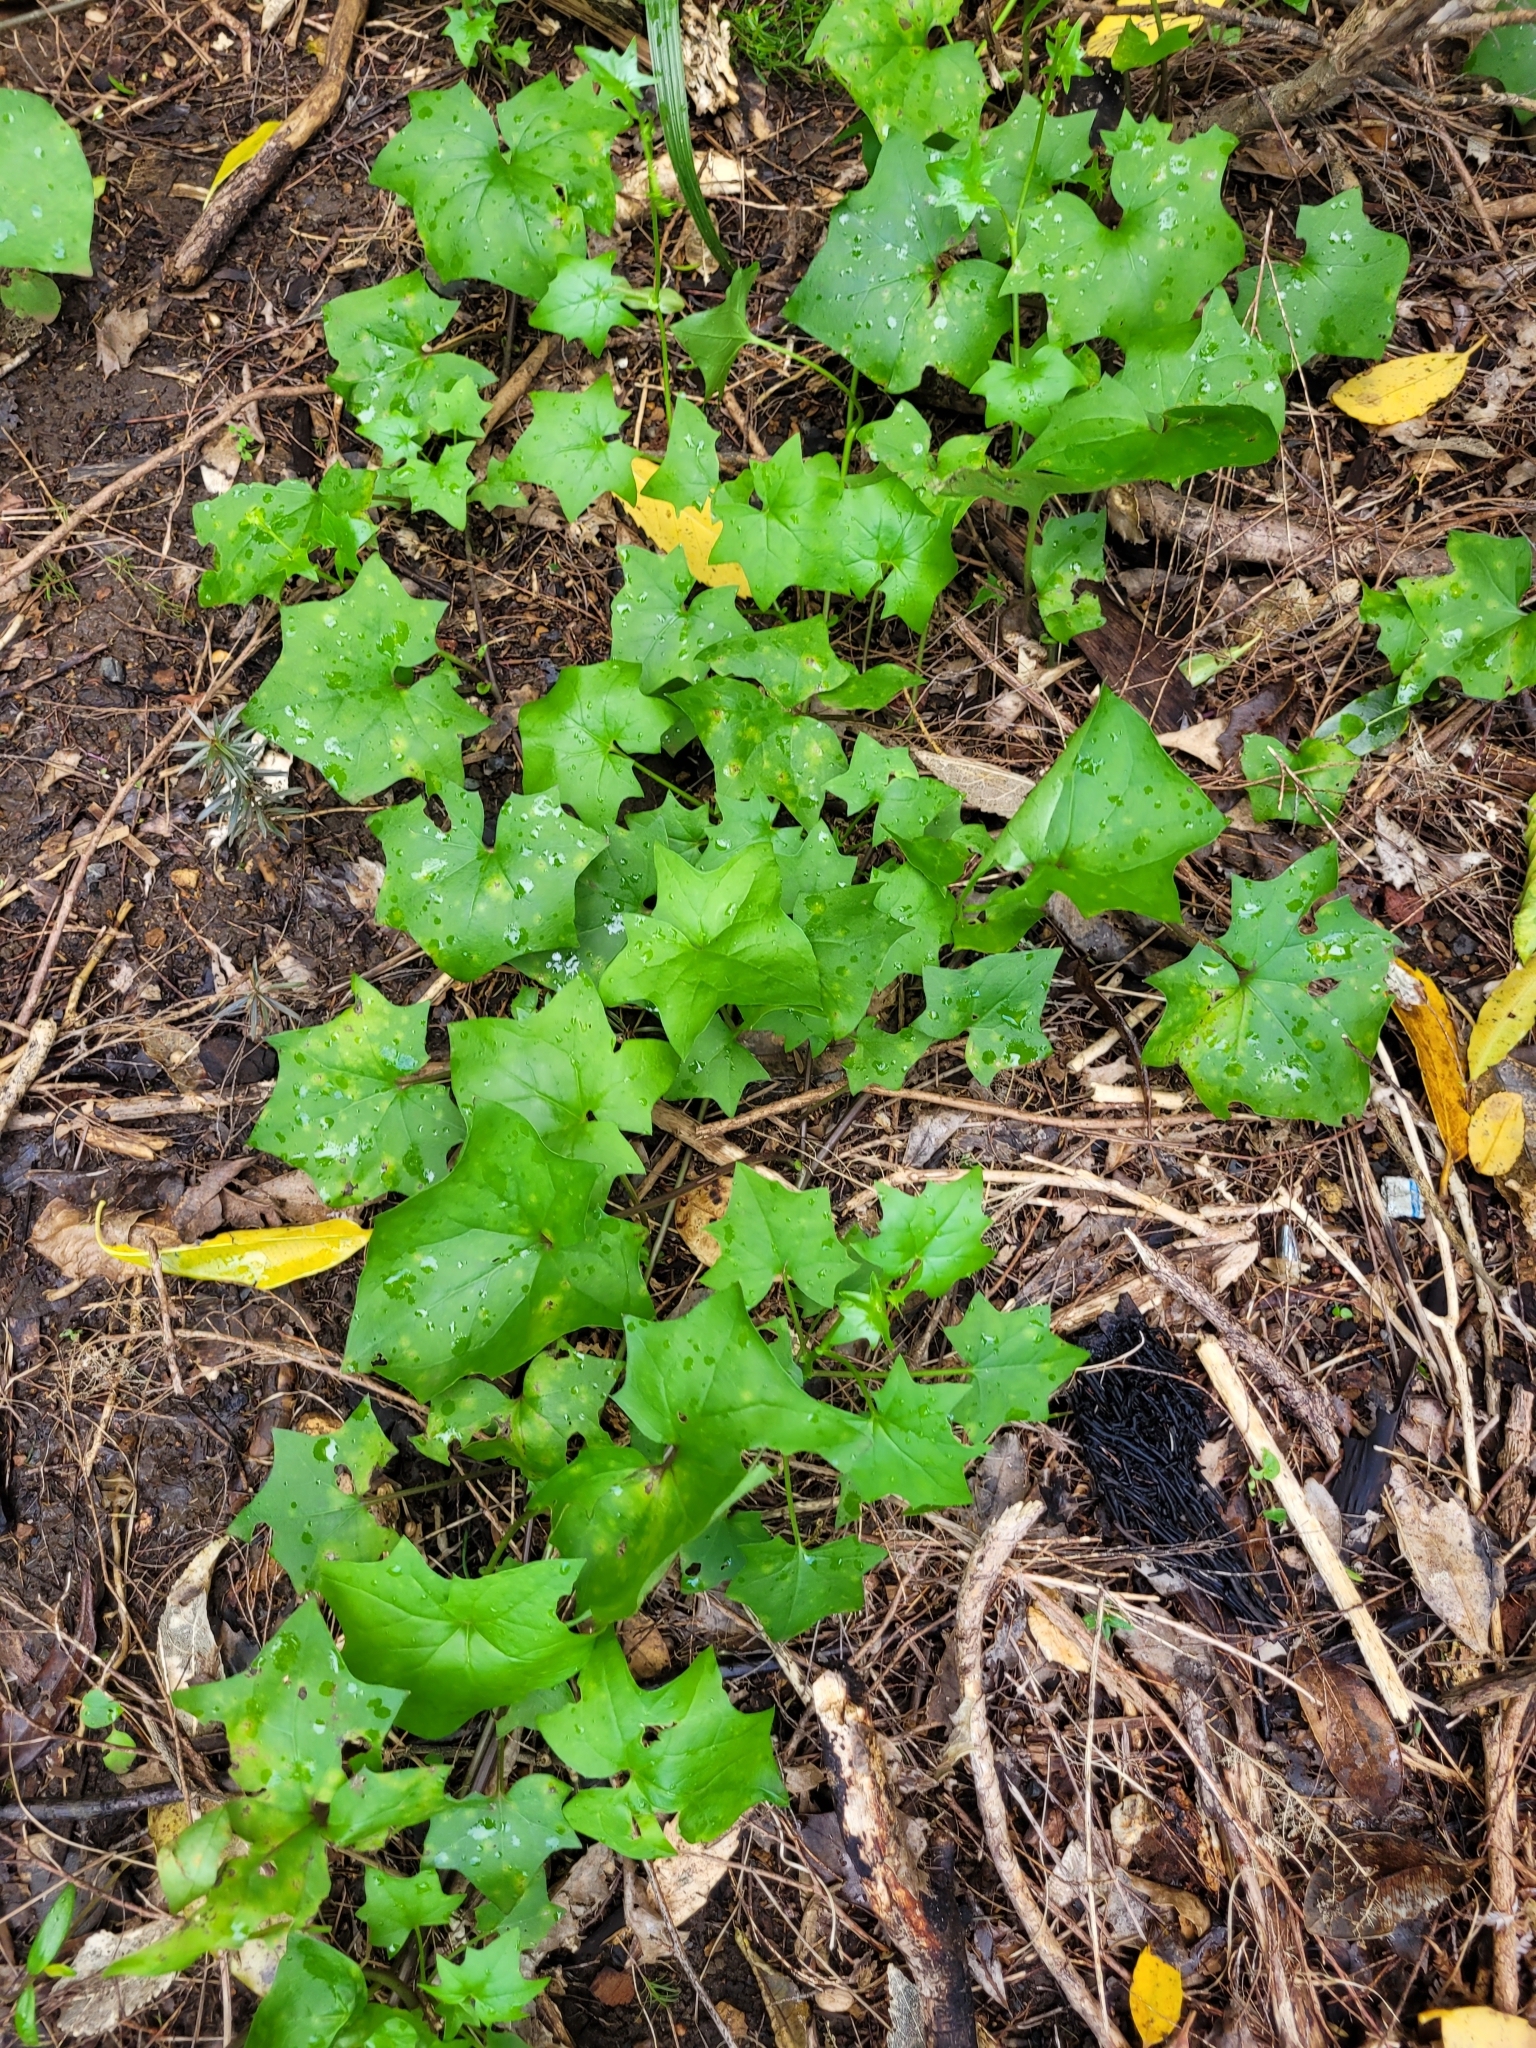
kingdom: Plantae
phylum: Tracheophyta
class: Magnoliopsida
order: Asterales
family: Asteraceae
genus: Delairea
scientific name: Delairea odorata
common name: Cape-ivy
